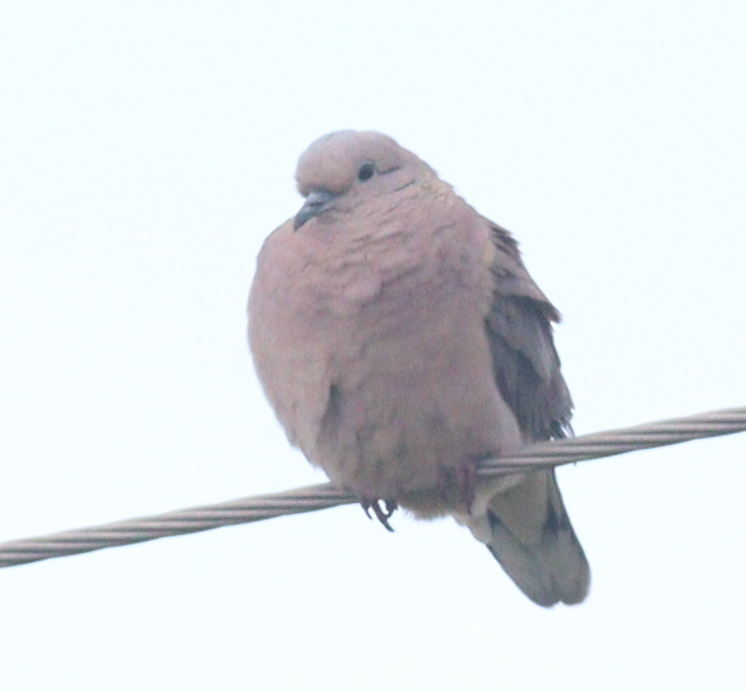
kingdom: Animalia
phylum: Chordata
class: Aves
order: Columbiformes
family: Columbidae
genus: Zenaida
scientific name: Zenaida auriculata
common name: Eared dove
